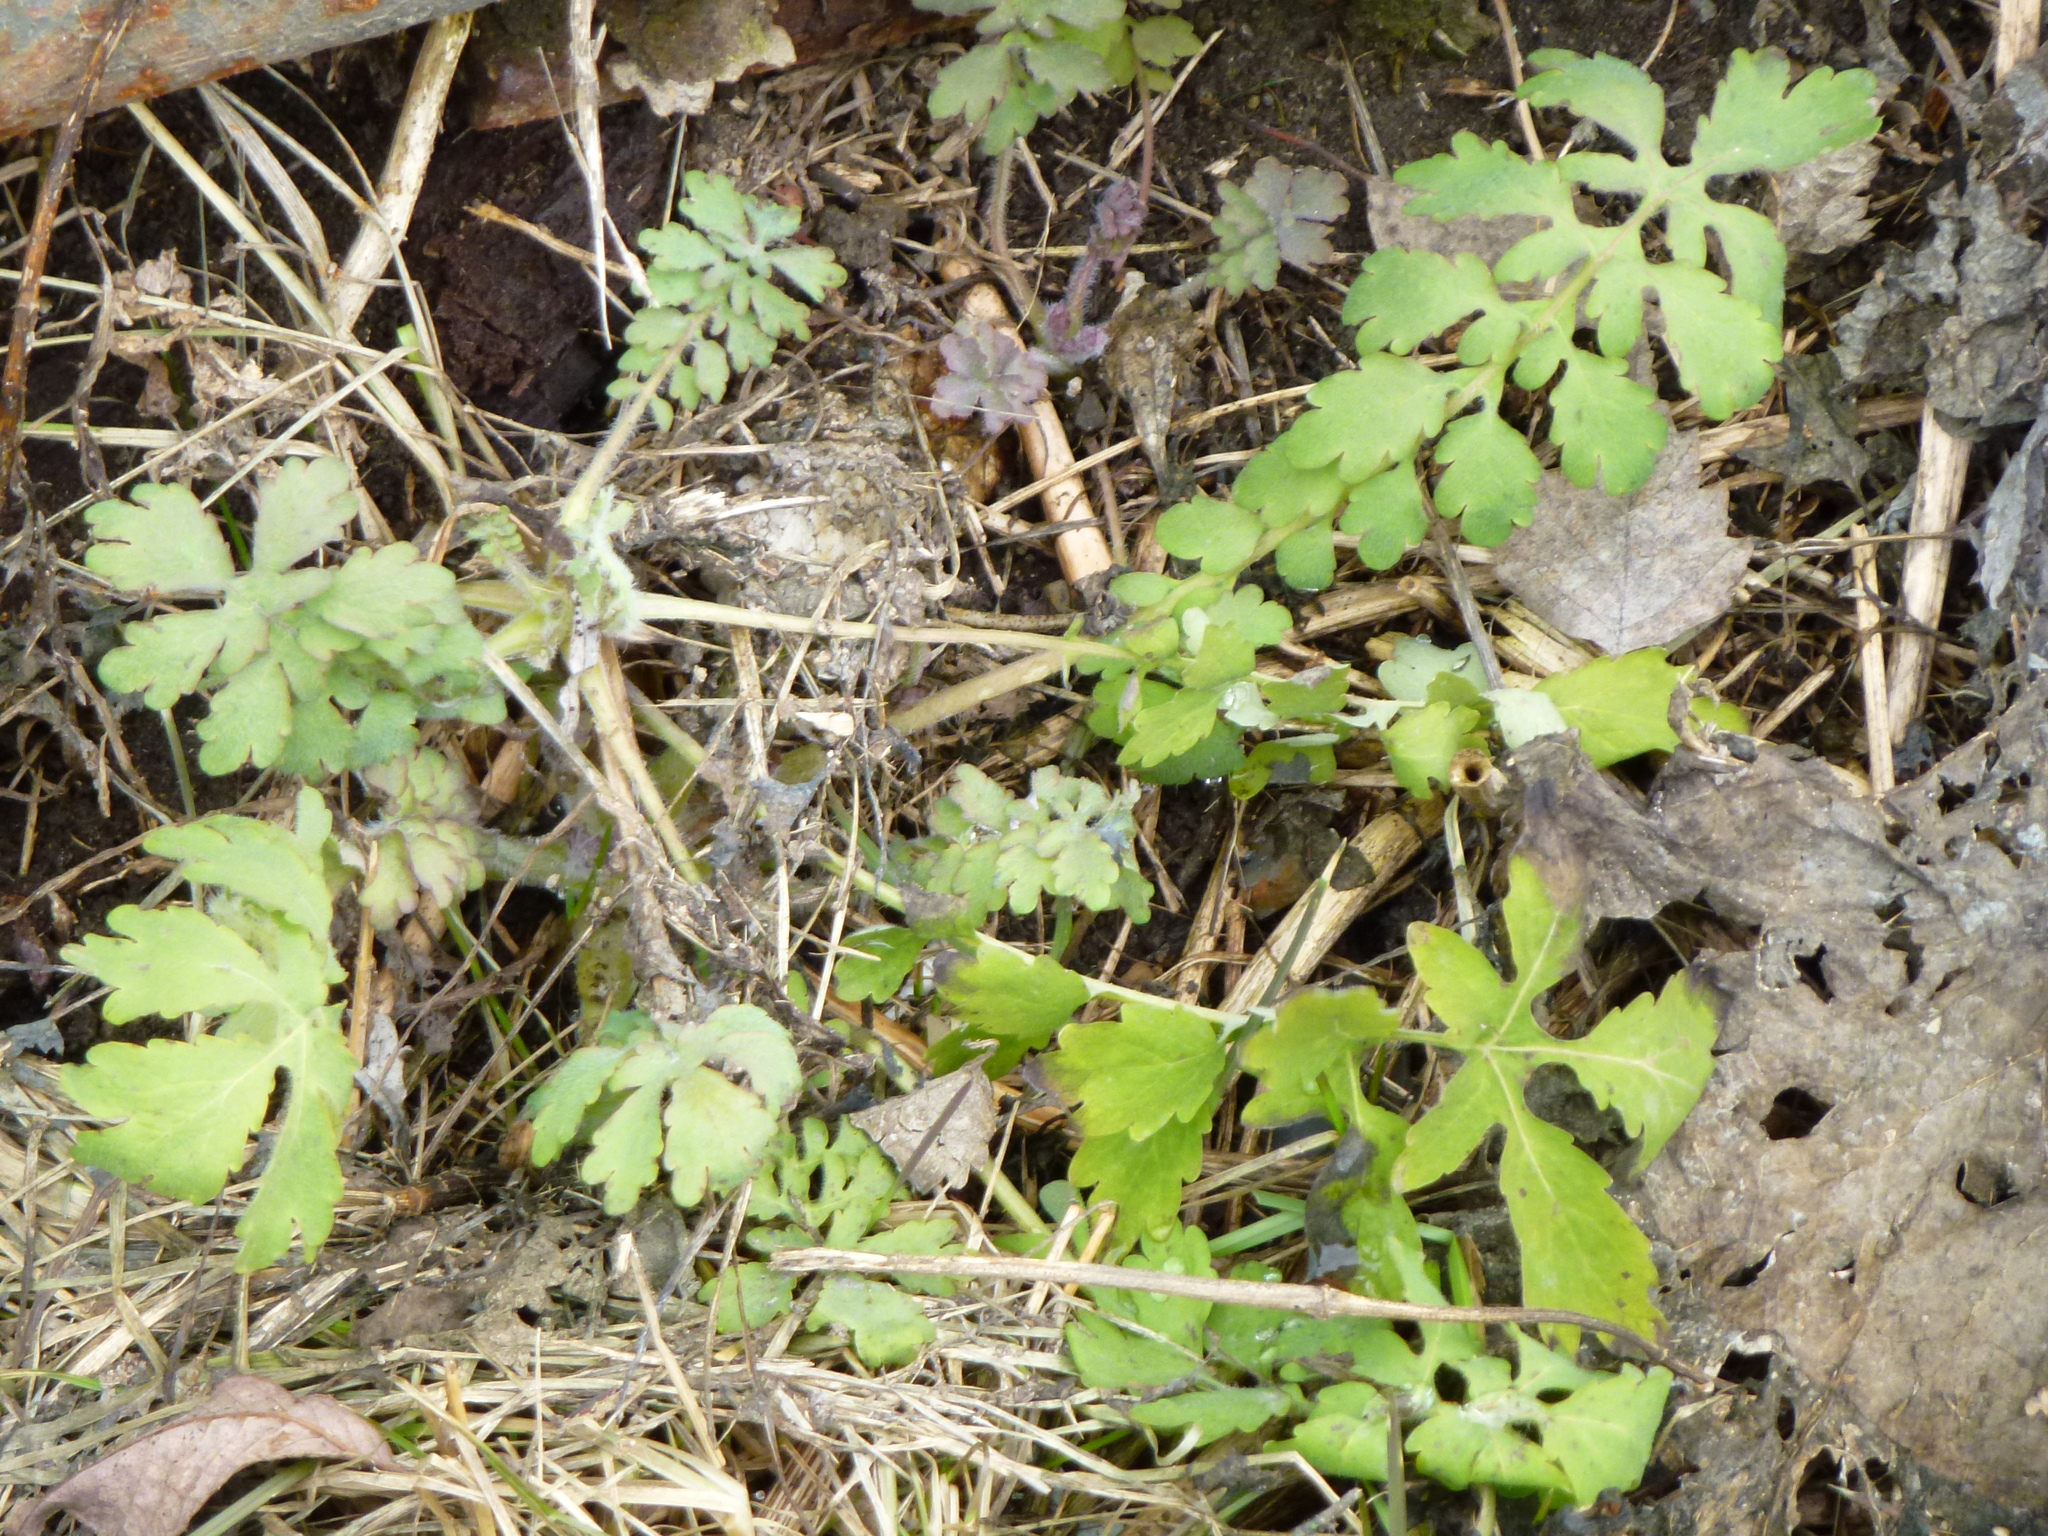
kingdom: Plantae
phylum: Tracheophyta
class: Magnoliopsida
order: Ranunculales
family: Papaveraceae
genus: Chelidonium
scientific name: Chelidonium majus
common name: Greater celandine
